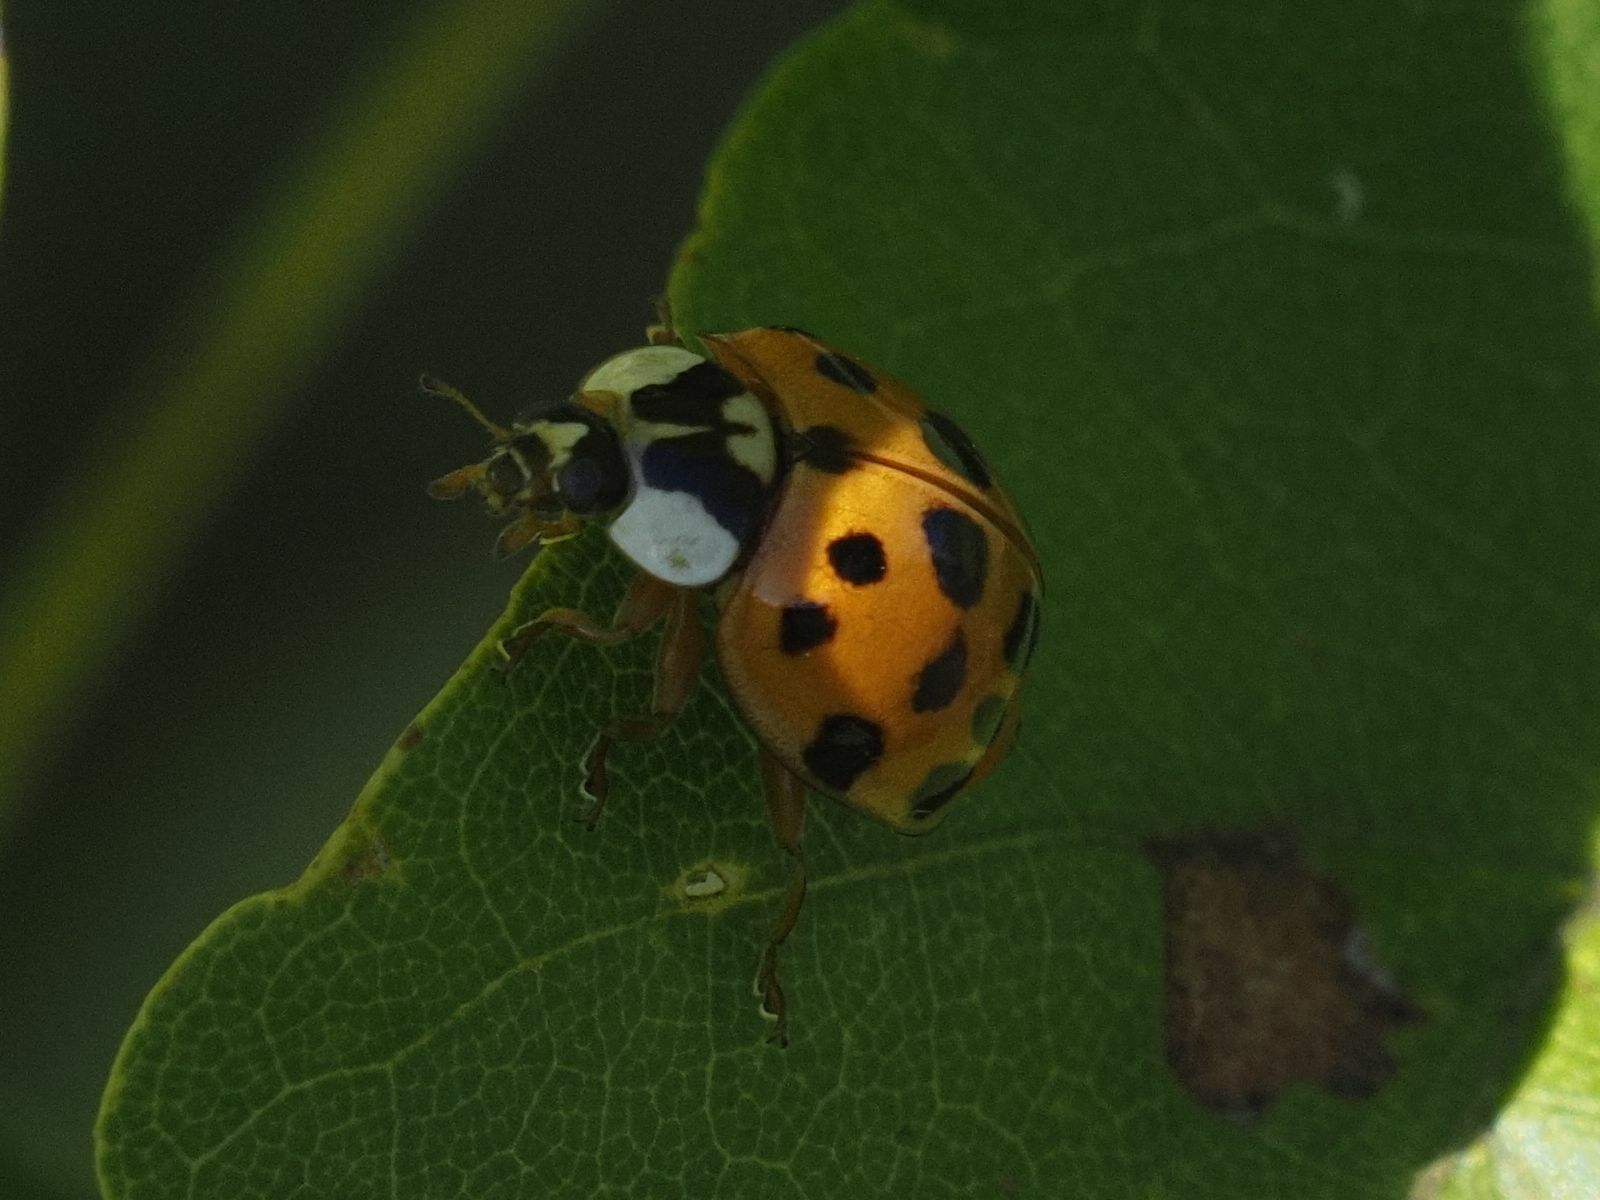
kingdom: Animalia
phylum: Arthropoda
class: Insecta
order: Coleoptera
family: Coccinellidae
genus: Harmonia
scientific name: Harmonia axyridis
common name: Harlequin ladybird
